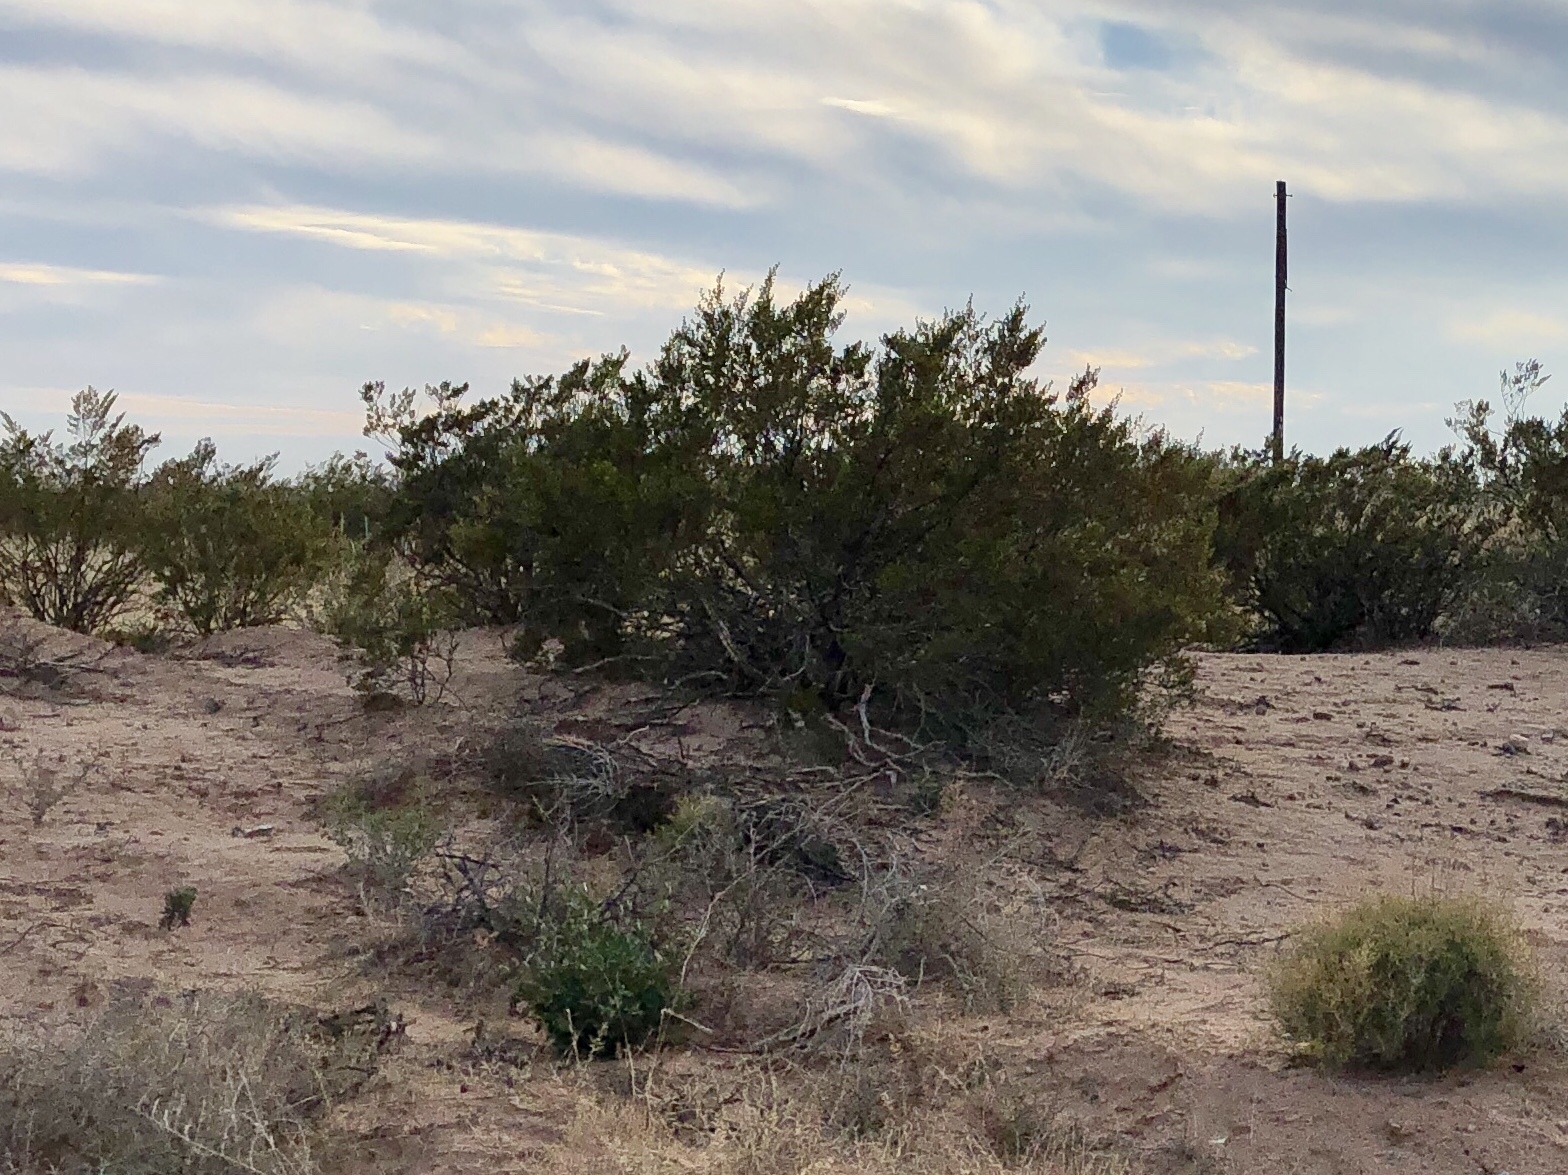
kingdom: Plantae
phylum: Tracheophyta
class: Magnoliopsida
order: Zygophyllales
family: Zygophyllaceae
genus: Larrea
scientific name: Larrea tridentata
